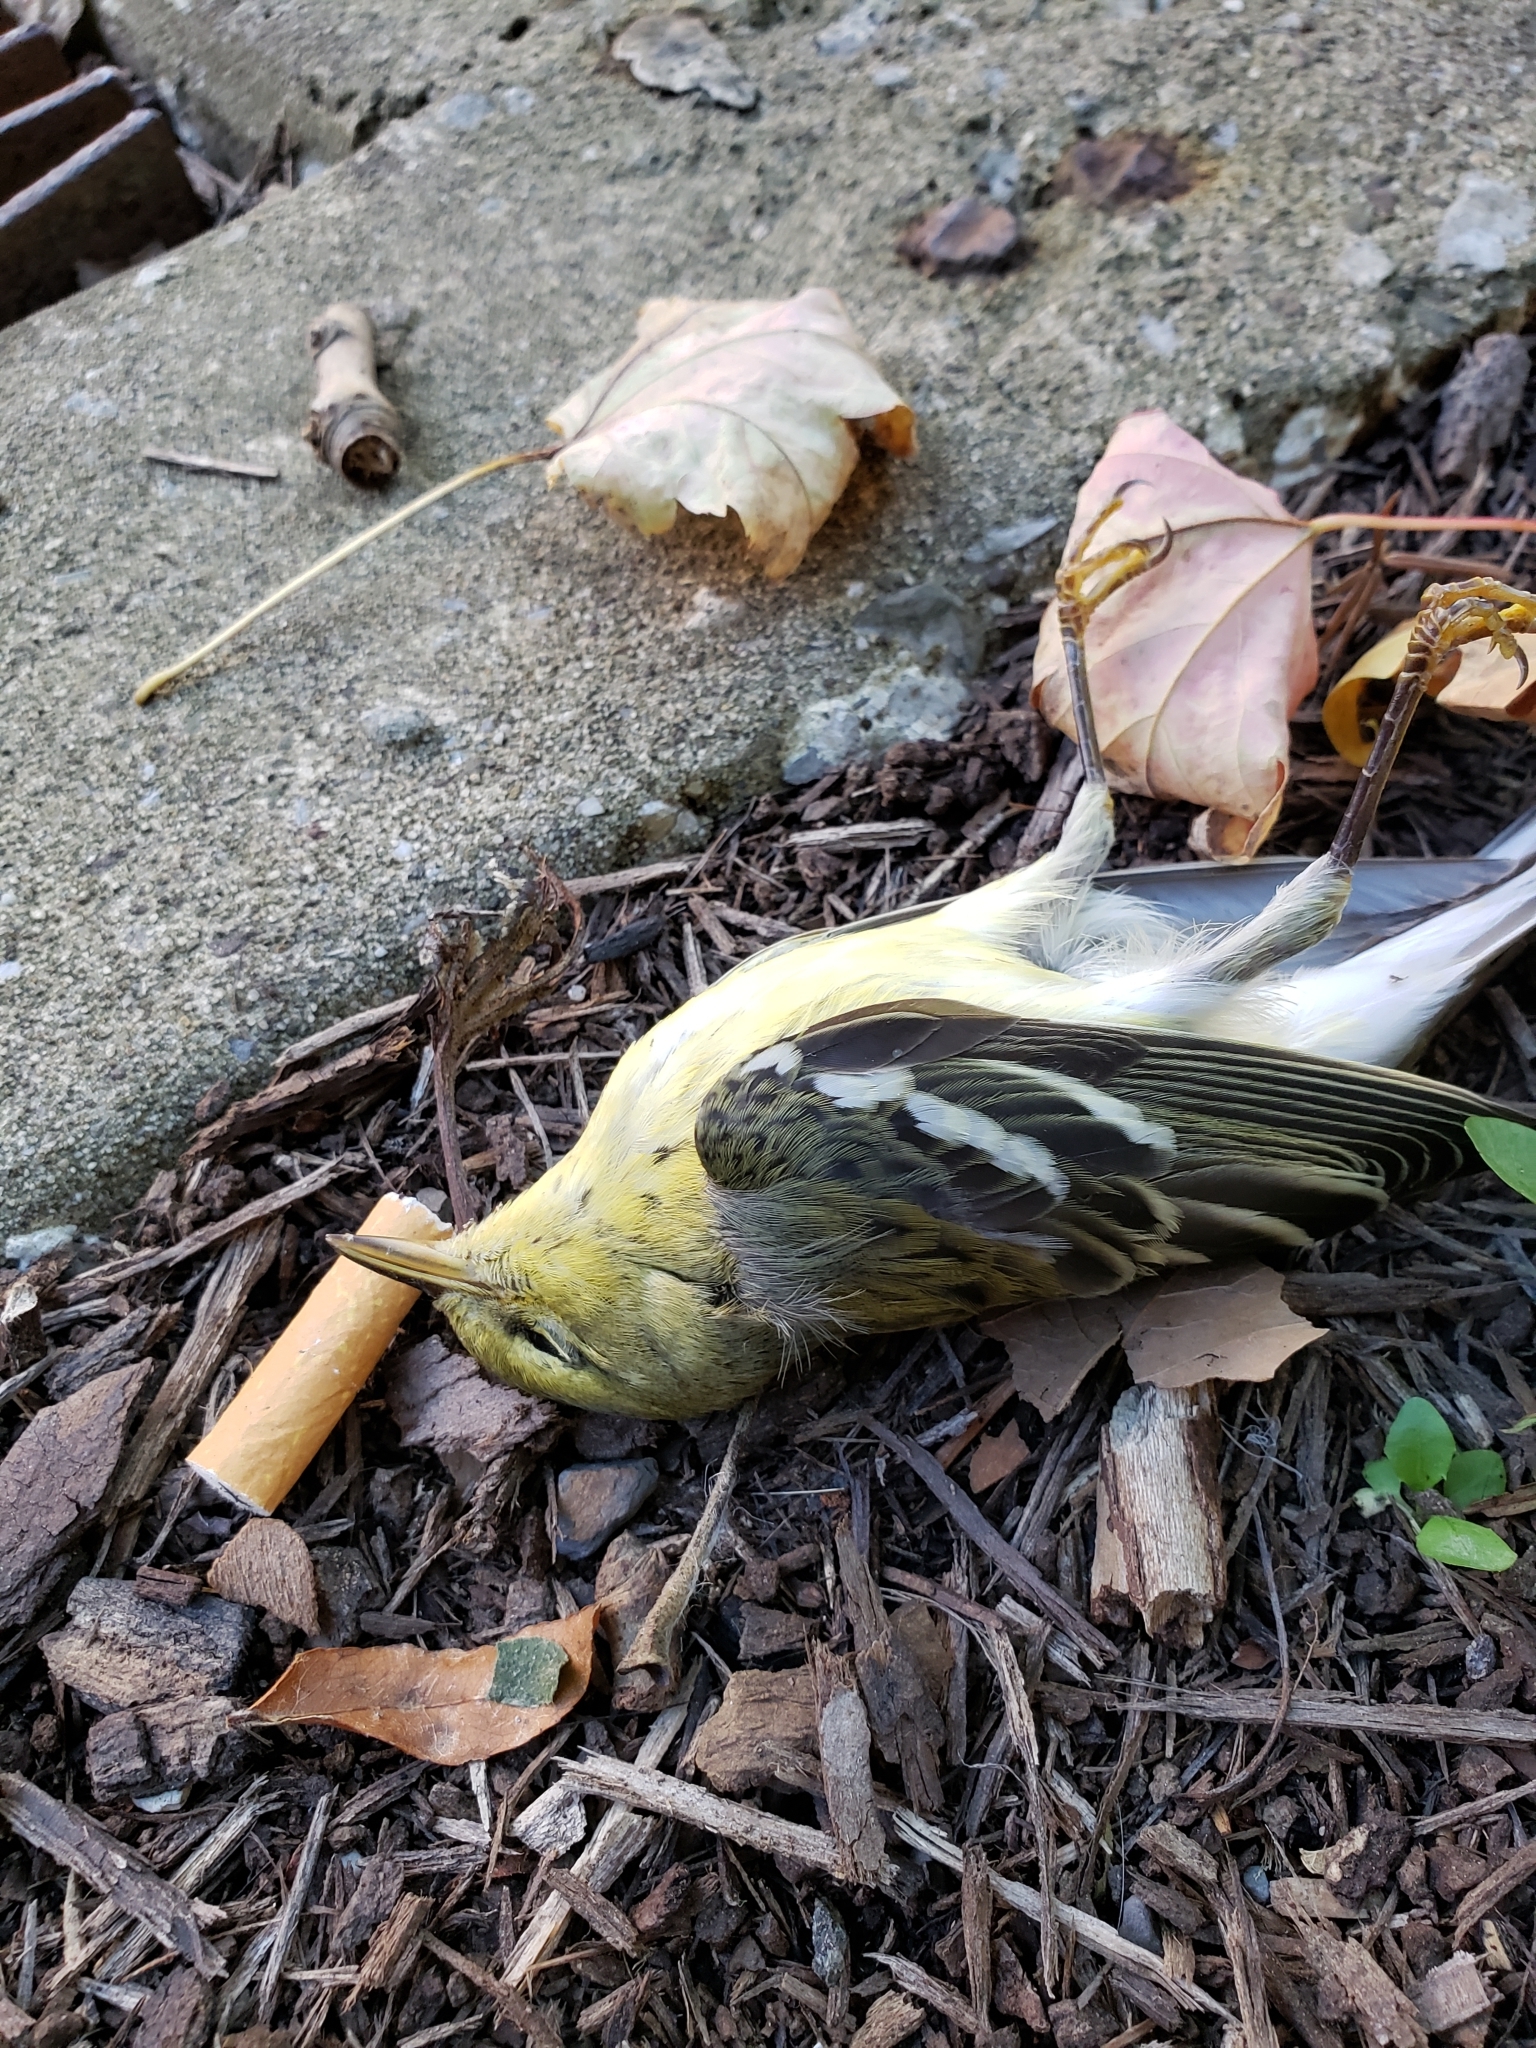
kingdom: Animalia
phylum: Chordata
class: Aves
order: Passeriformes
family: Parulidae
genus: Setophaga
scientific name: Setophaga striata
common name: Blackpoll warbler
